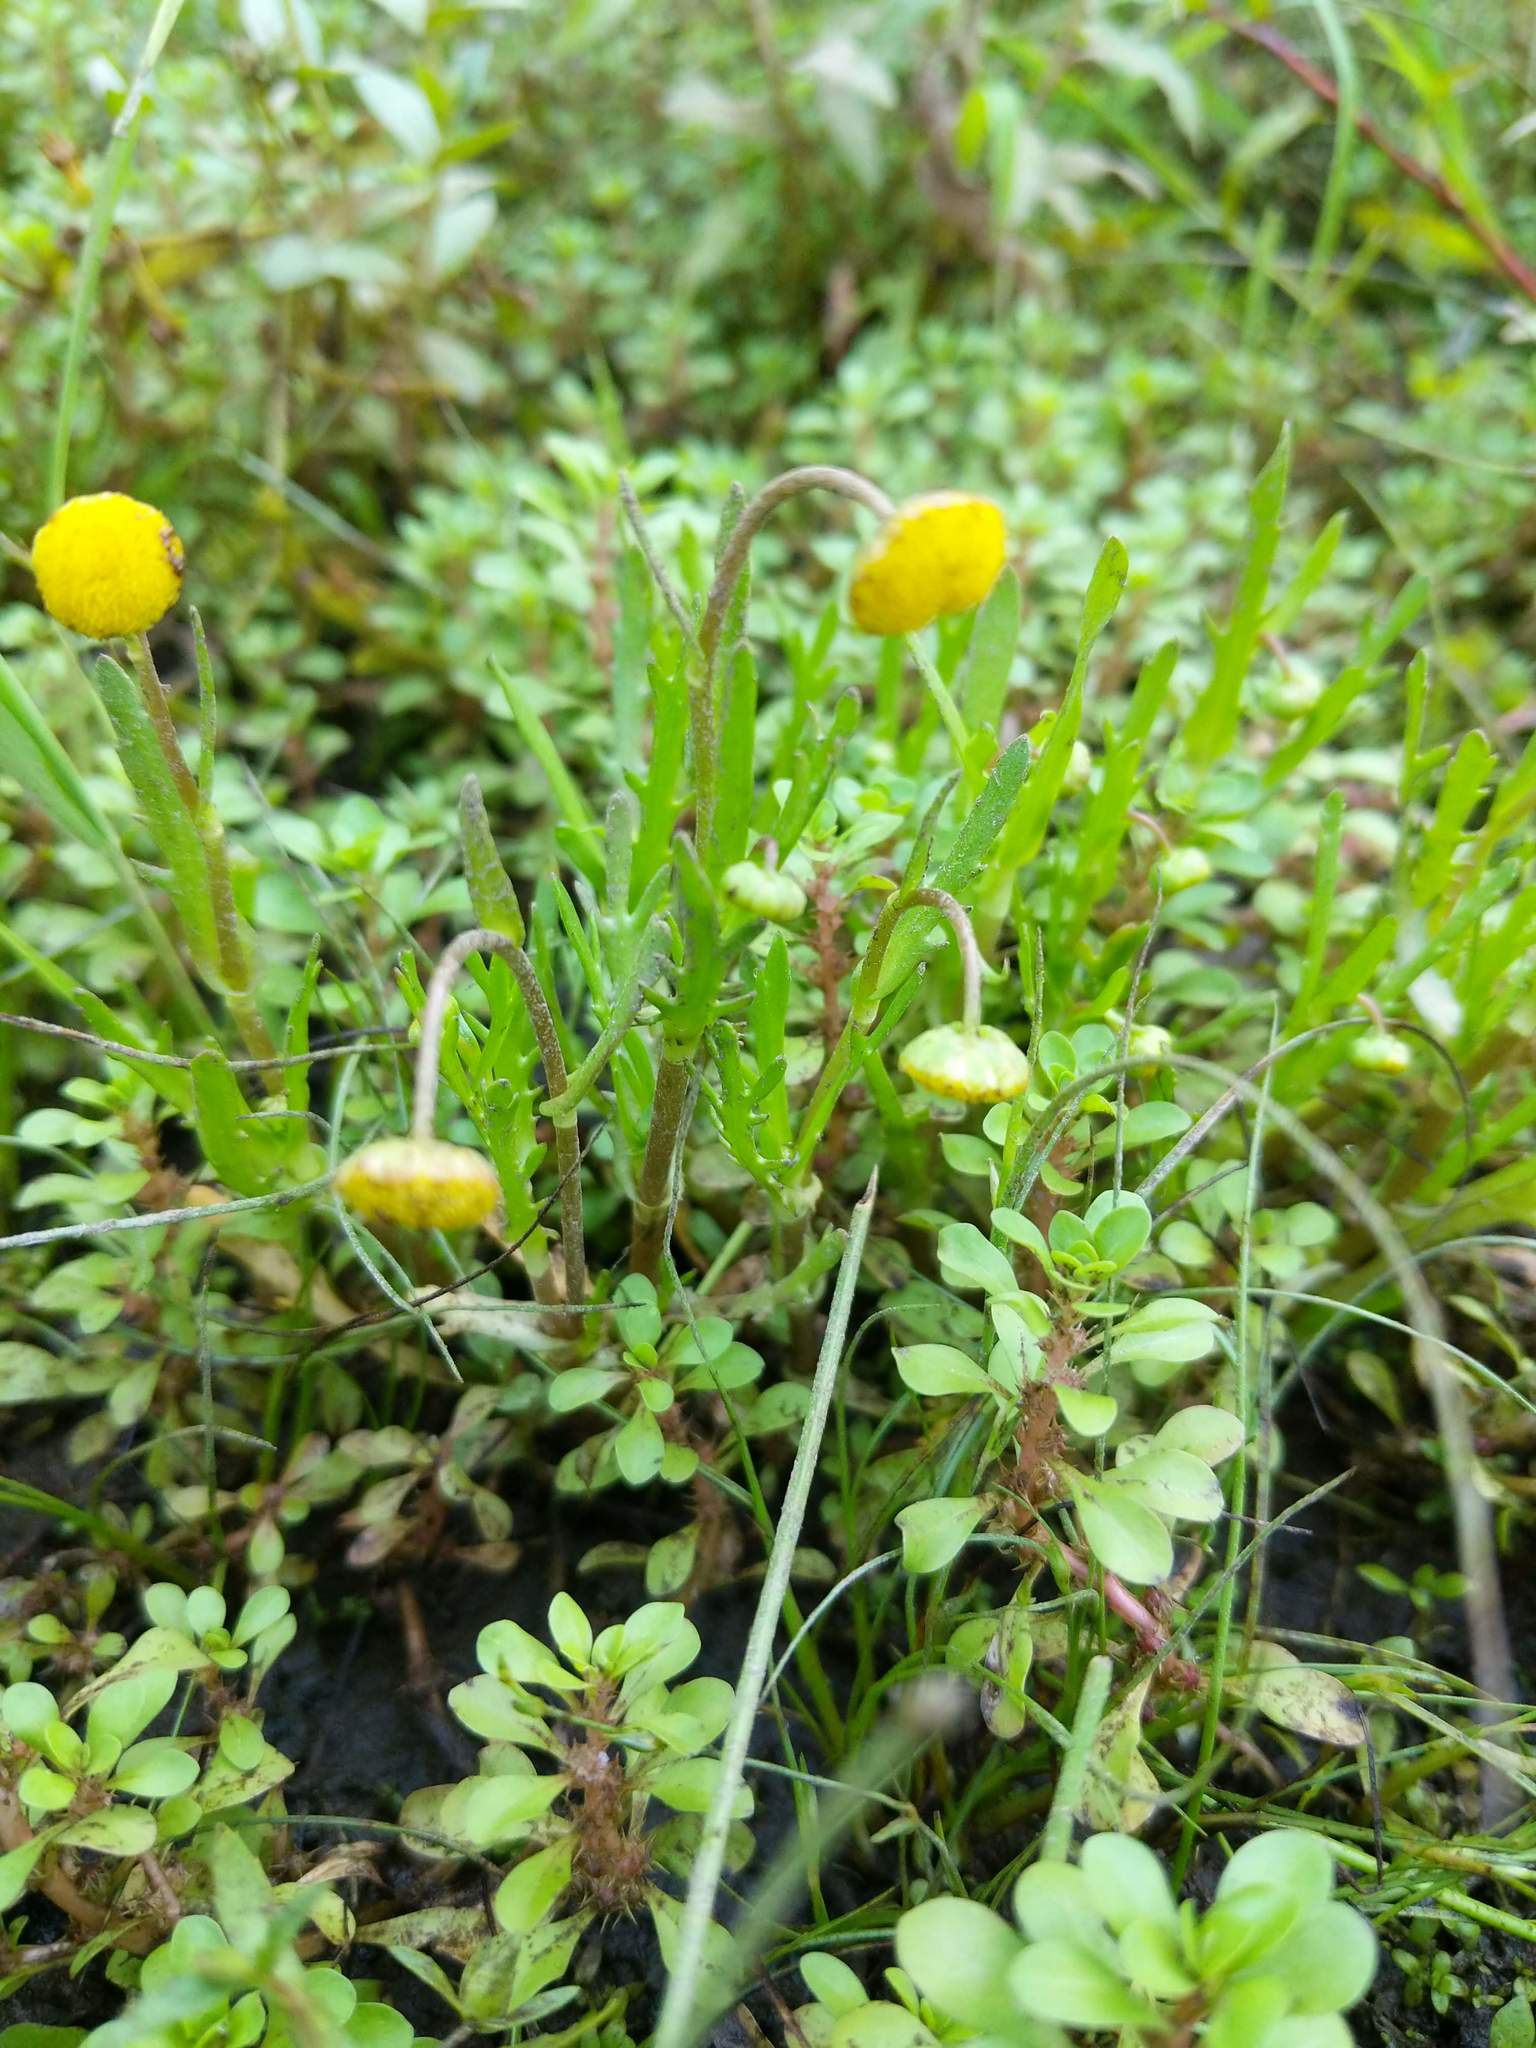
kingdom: Plantae
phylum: Tracheophyta
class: Magnoliopsida
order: Asterales
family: Asteraceae
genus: Cotula
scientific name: Cotula coronopifolia
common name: Buttonweed
